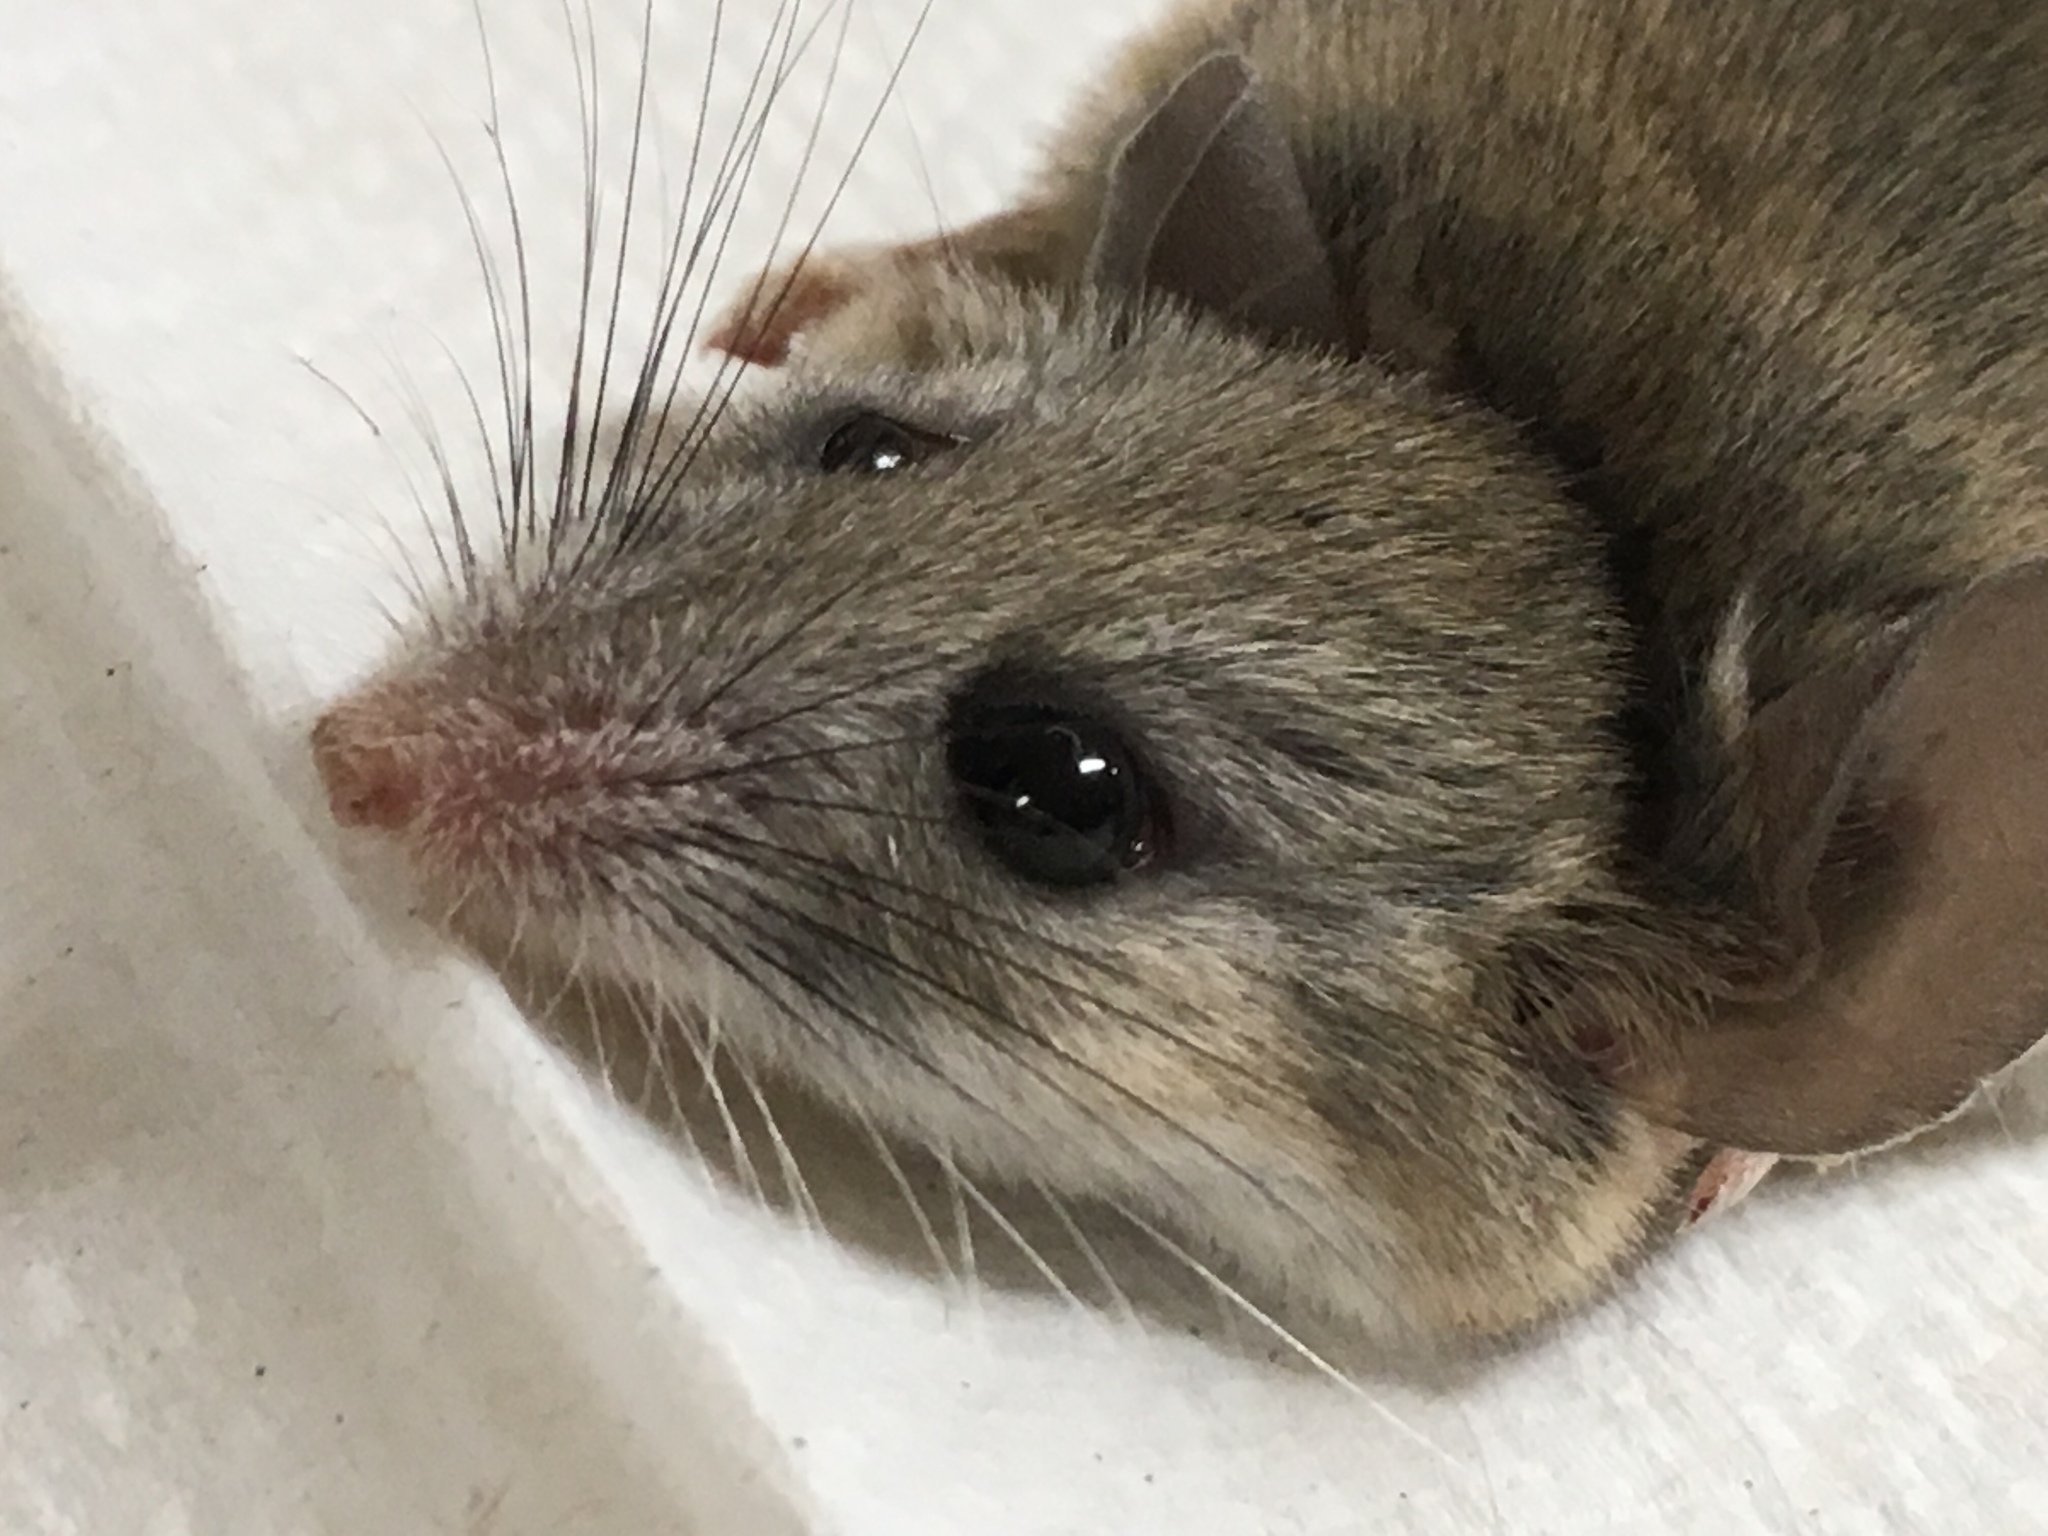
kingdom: Animalia
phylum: Chordata
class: Mammalia
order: Rodentia
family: Cricetidae
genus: Peromyscus
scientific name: Peromyscus eremicus
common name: Cactus deermouse
